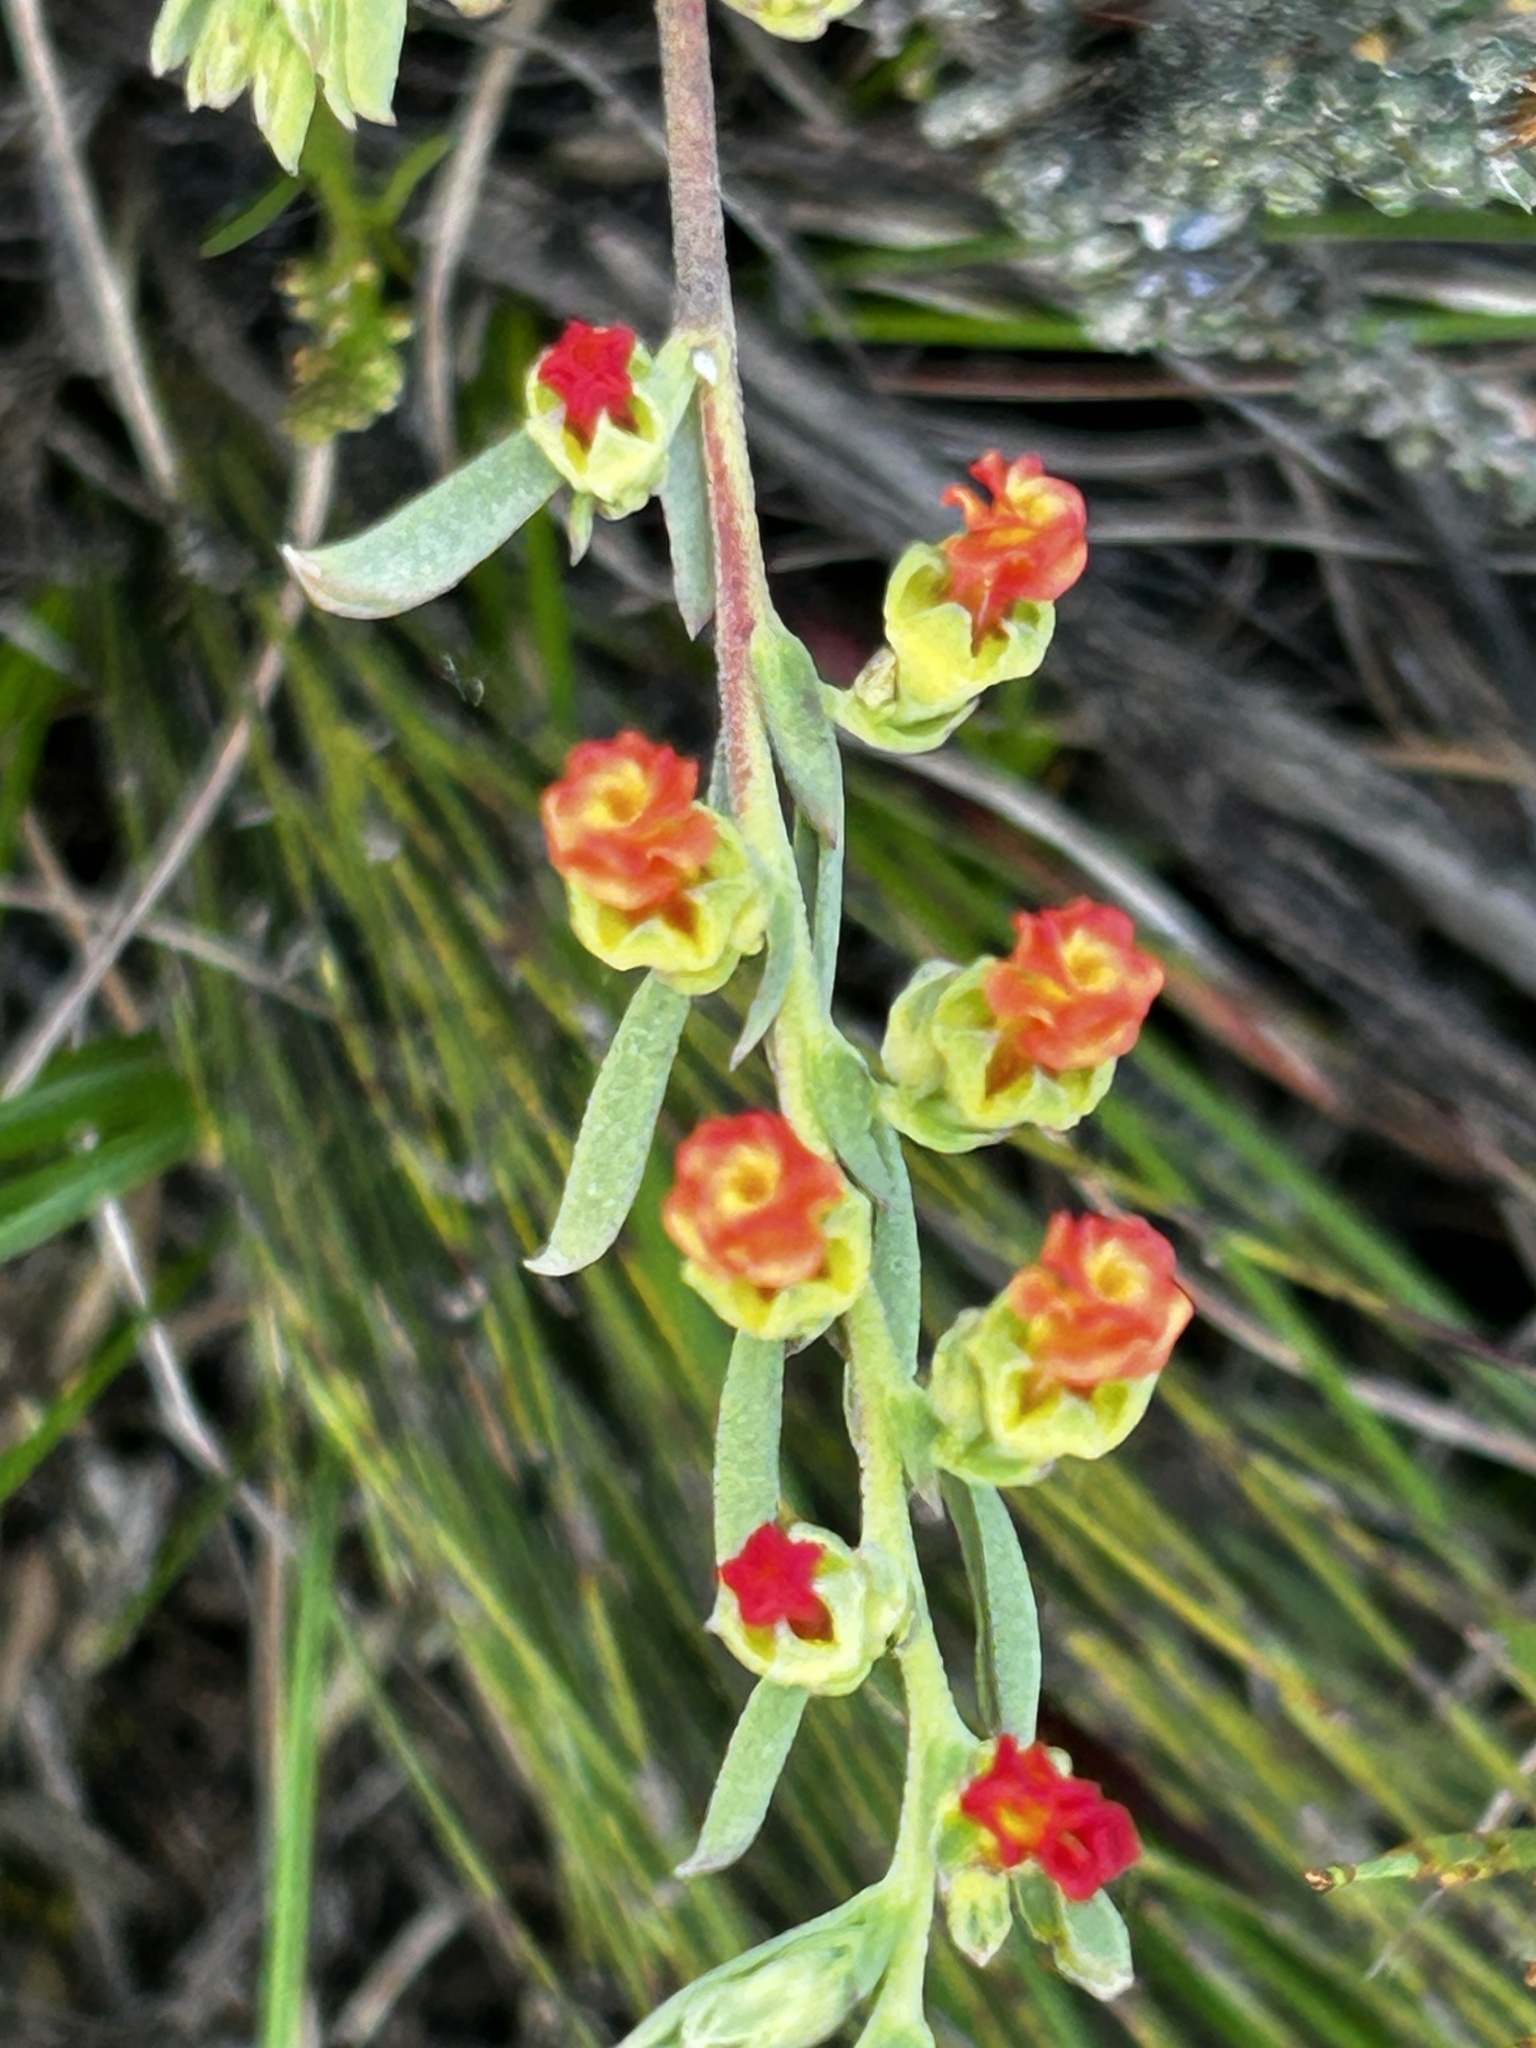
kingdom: Plantae
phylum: Tracheophyta
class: Magnoliopsida
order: Malvales
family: Malvaceae
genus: Hermannia
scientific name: Hermannia diversistipula
